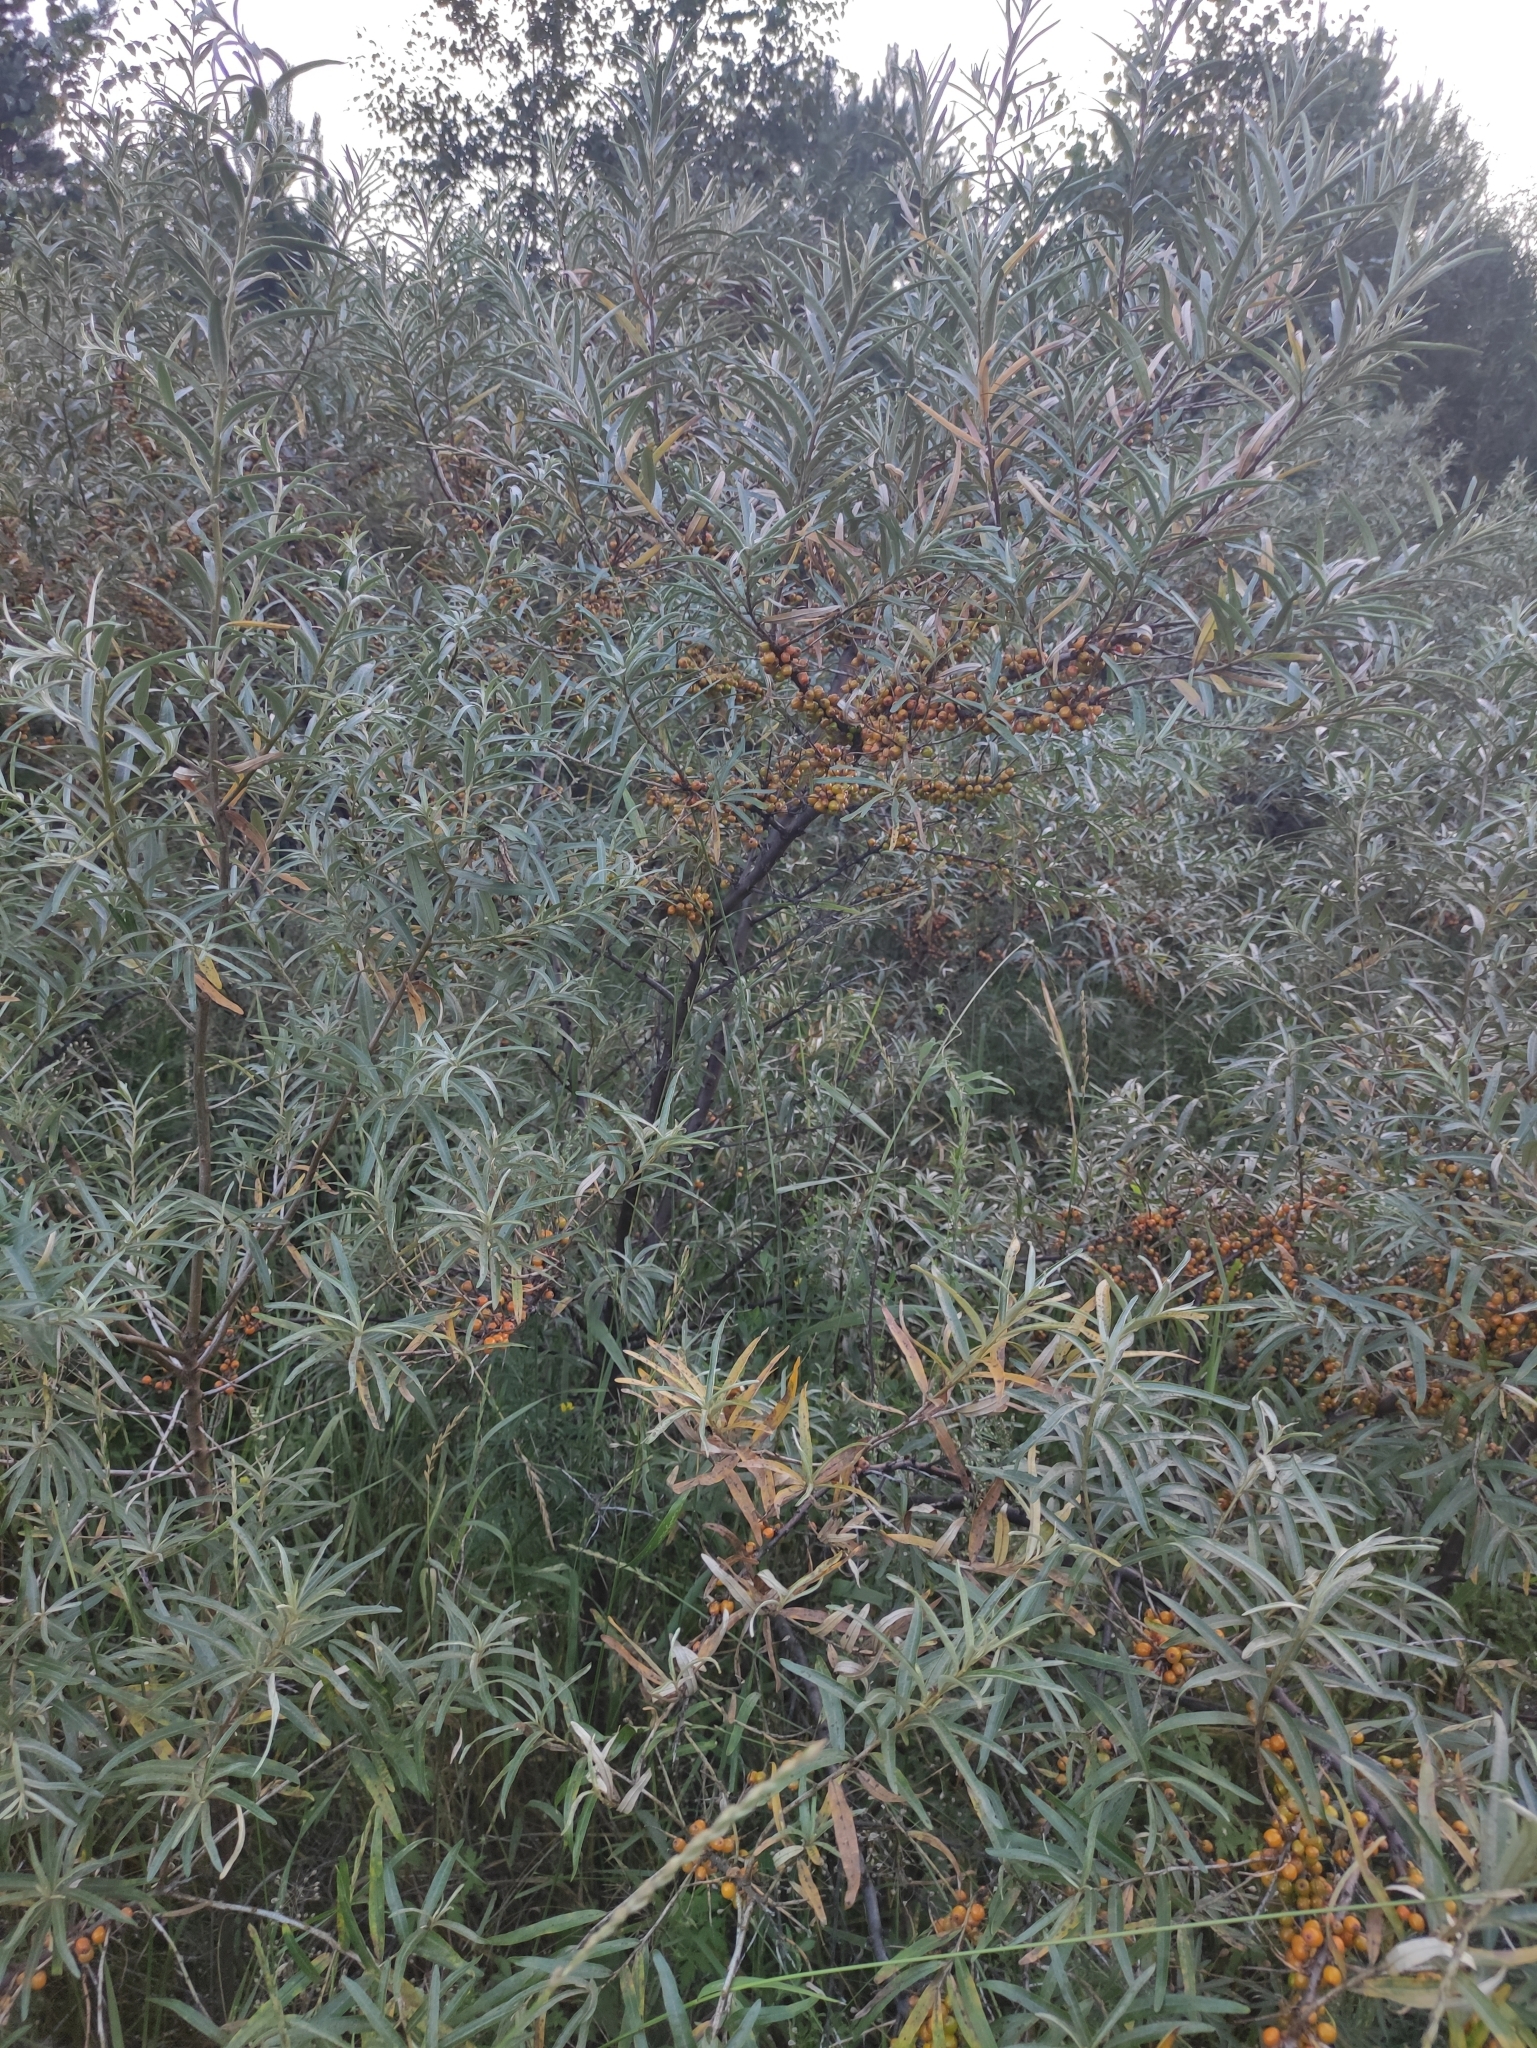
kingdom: Plantae
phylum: Tracheophyta
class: Magnoliopsida
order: Rosales
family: Elaeagnaceae
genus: Hippophae
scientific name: Hippophae rhamnoides
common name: Sea-buckthorn
